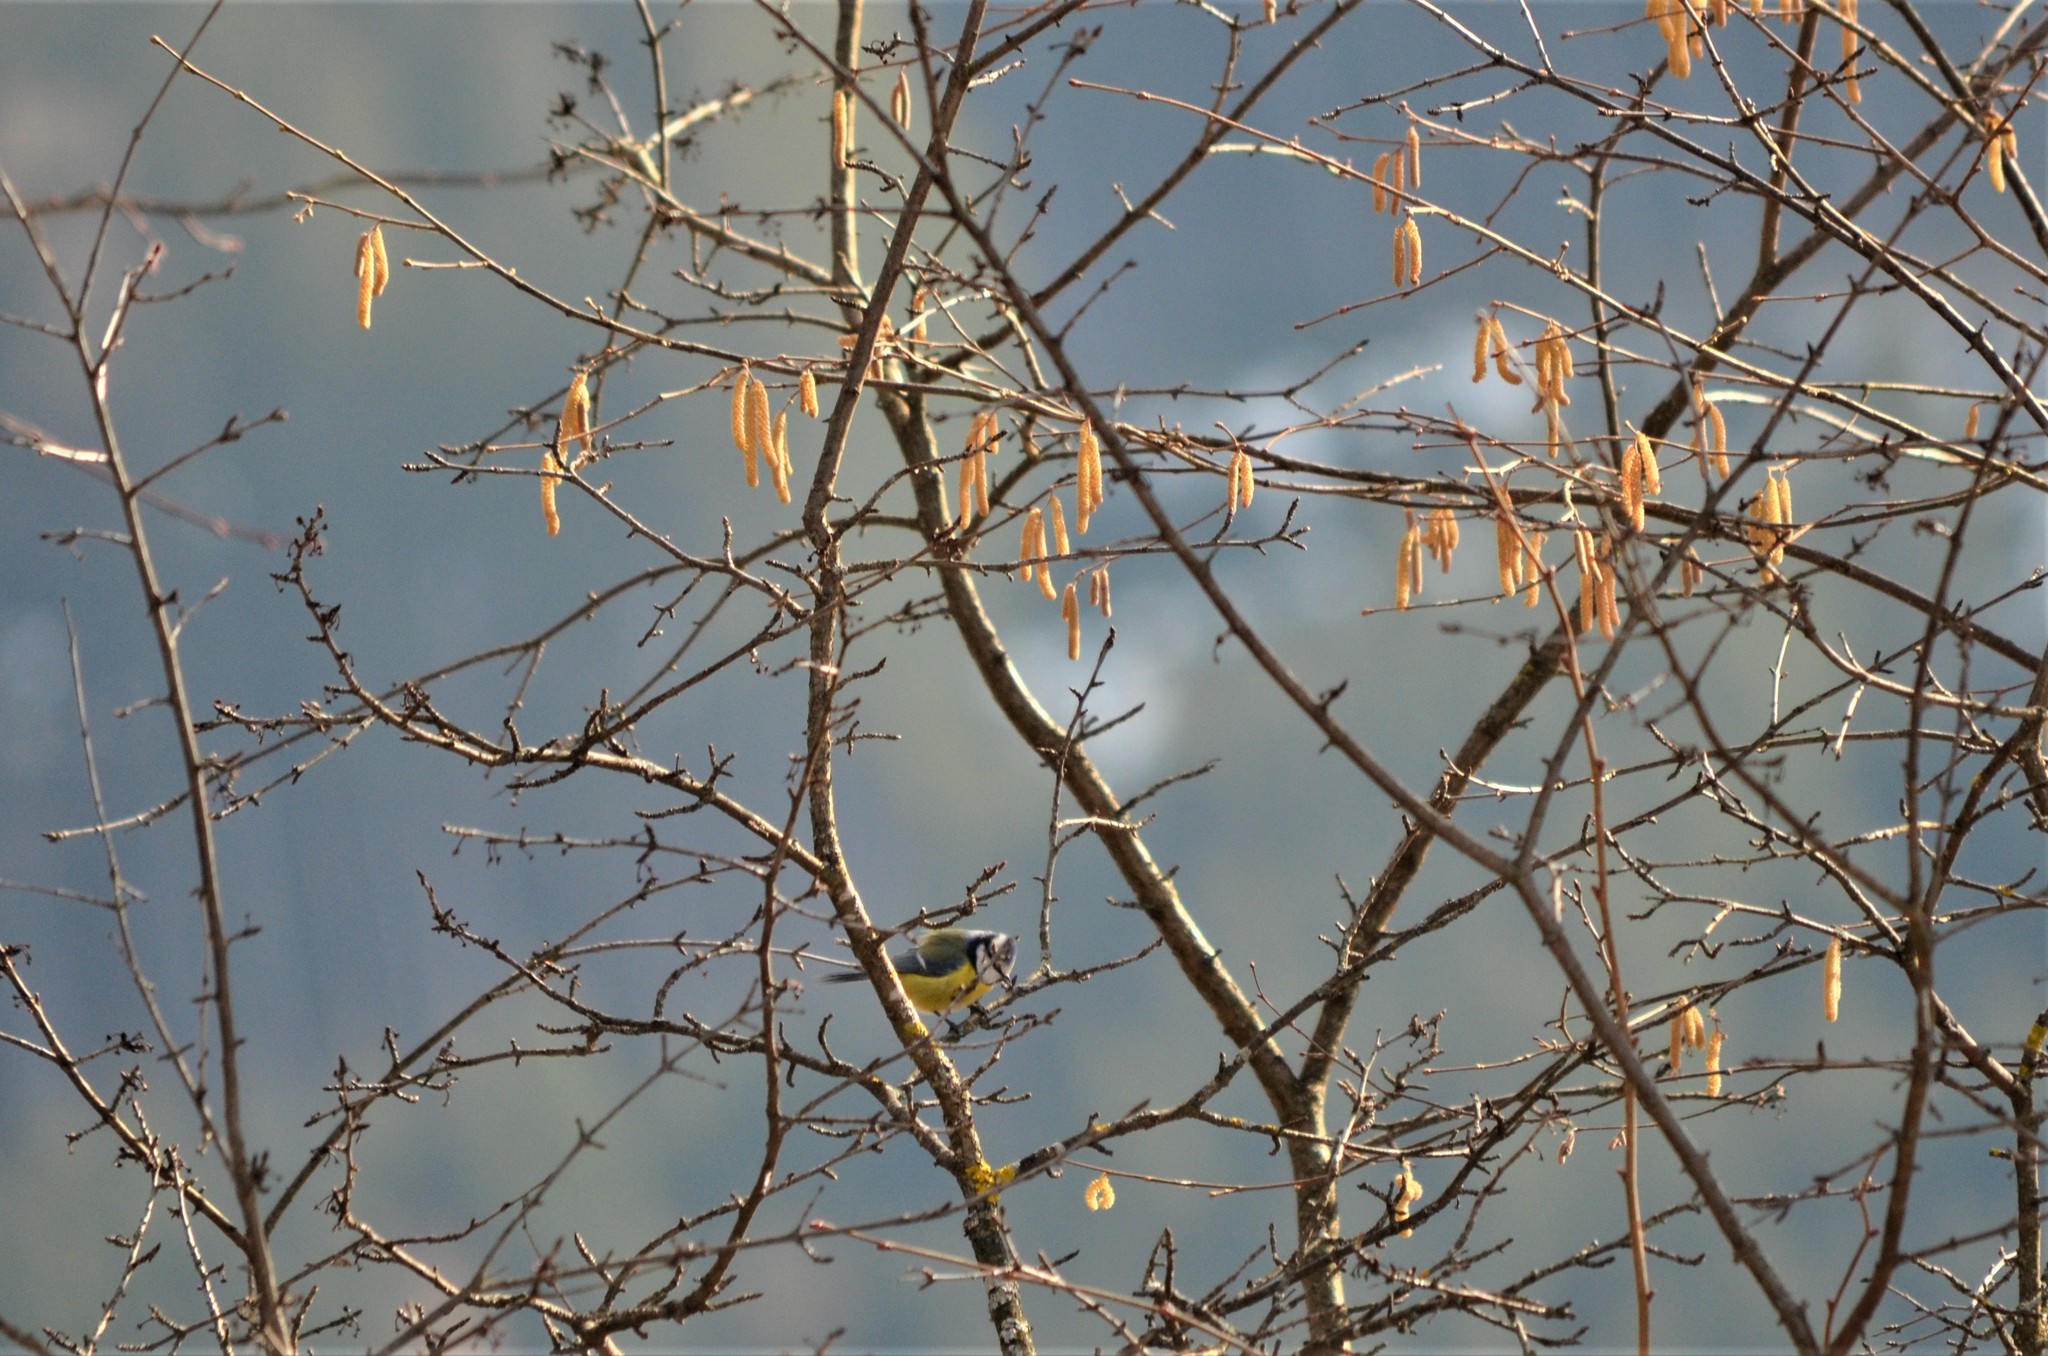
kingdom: Animalia
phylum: Chordata
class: Aves
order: Passeriformes
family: Paridae
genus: Cyanistes
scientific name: Cyanistes caeruleus
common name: Eurasian blue tit
